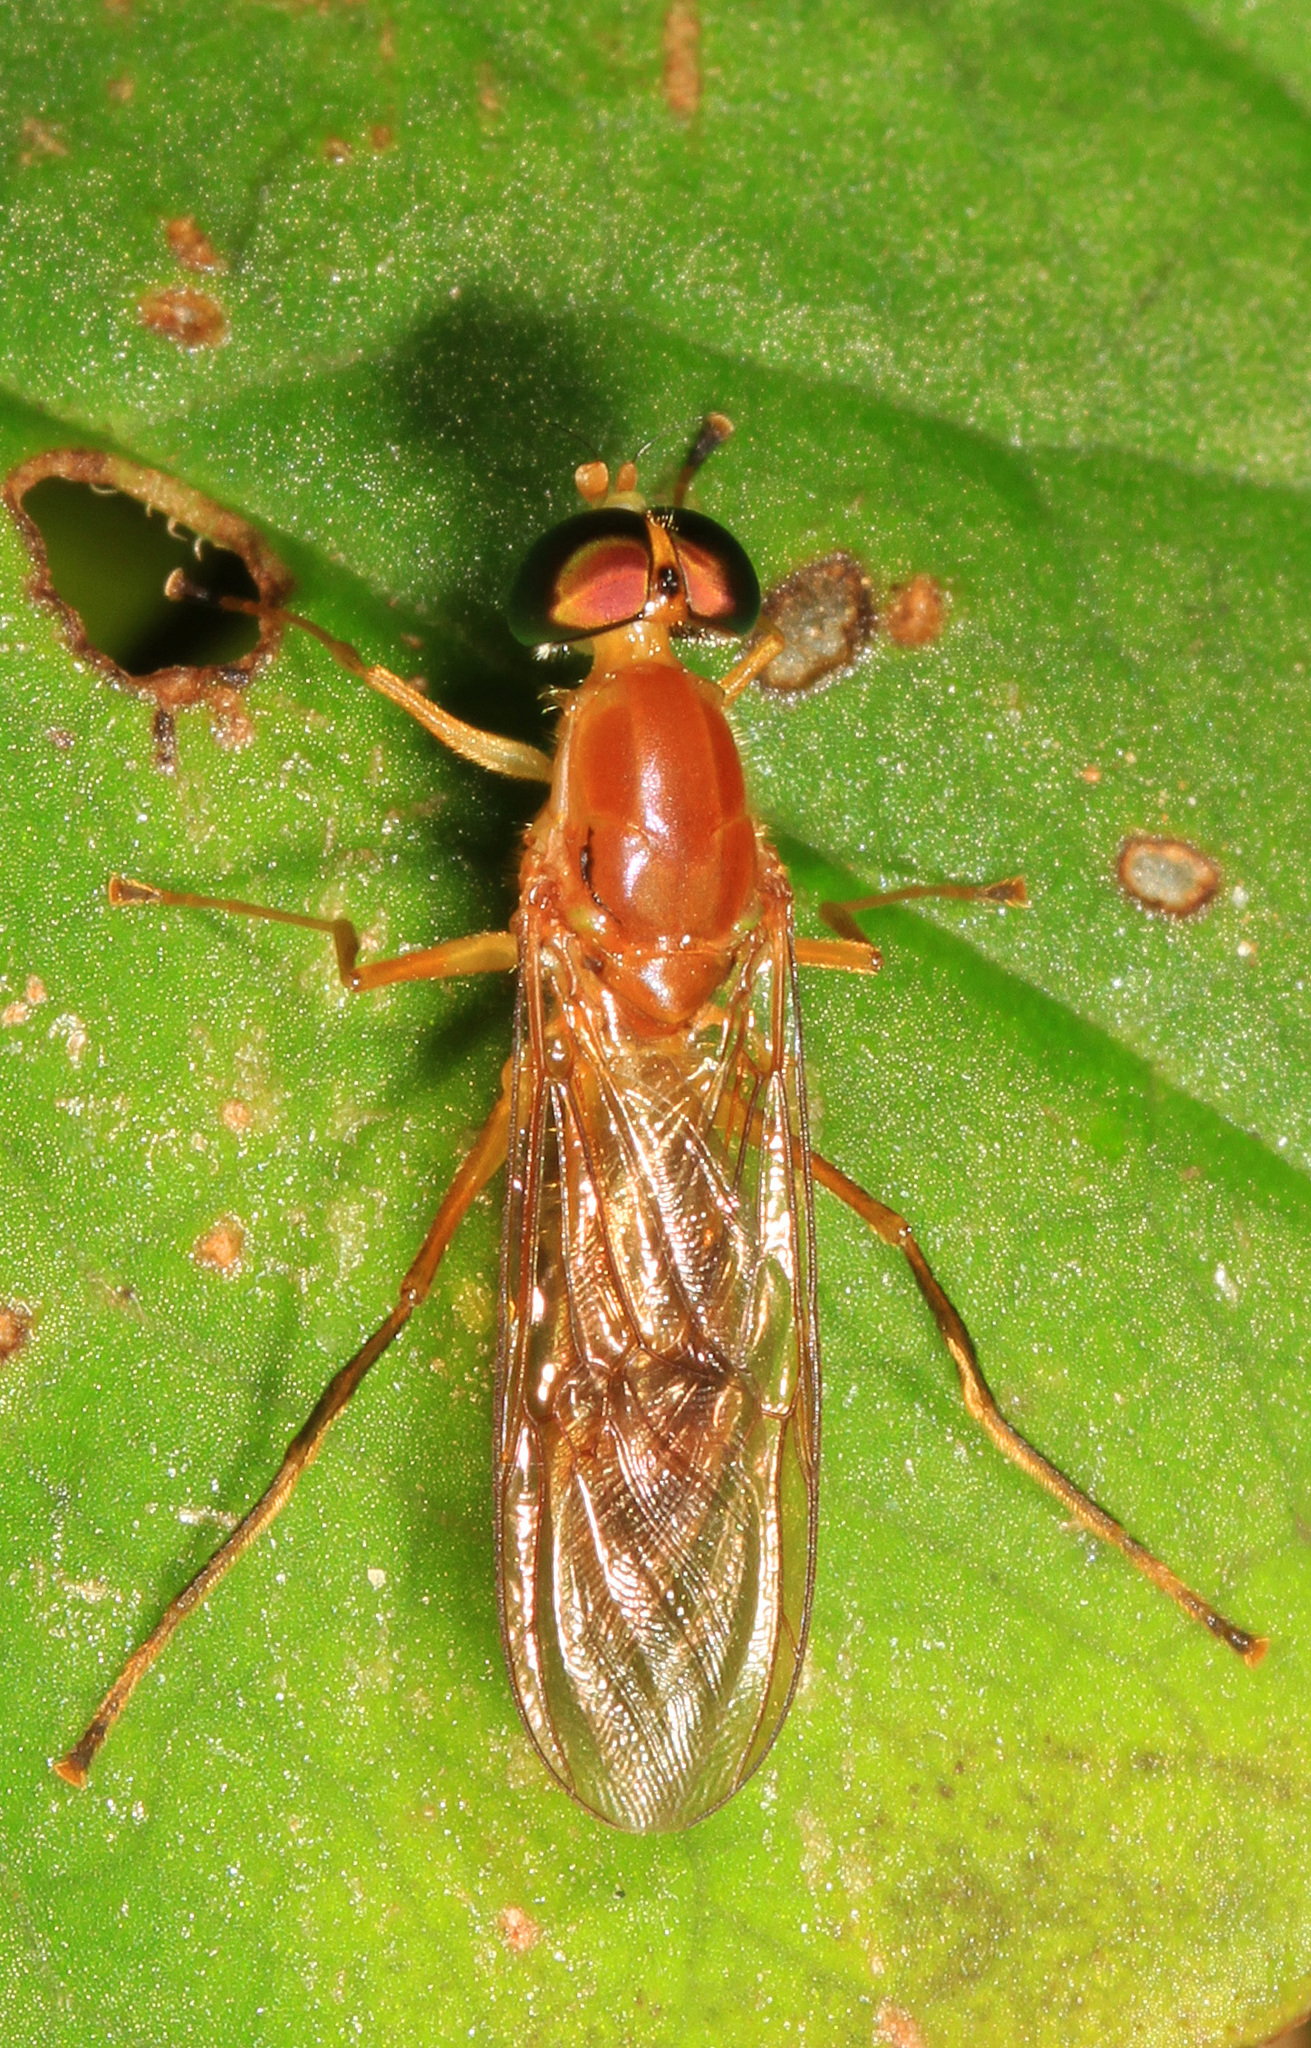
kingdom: Animalia
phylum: Arthropoda
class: Insecta
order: Diptera
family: Stratiomyidae
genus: Ptecticus
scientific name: Ptecticus trivittatus
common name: Compost fly
